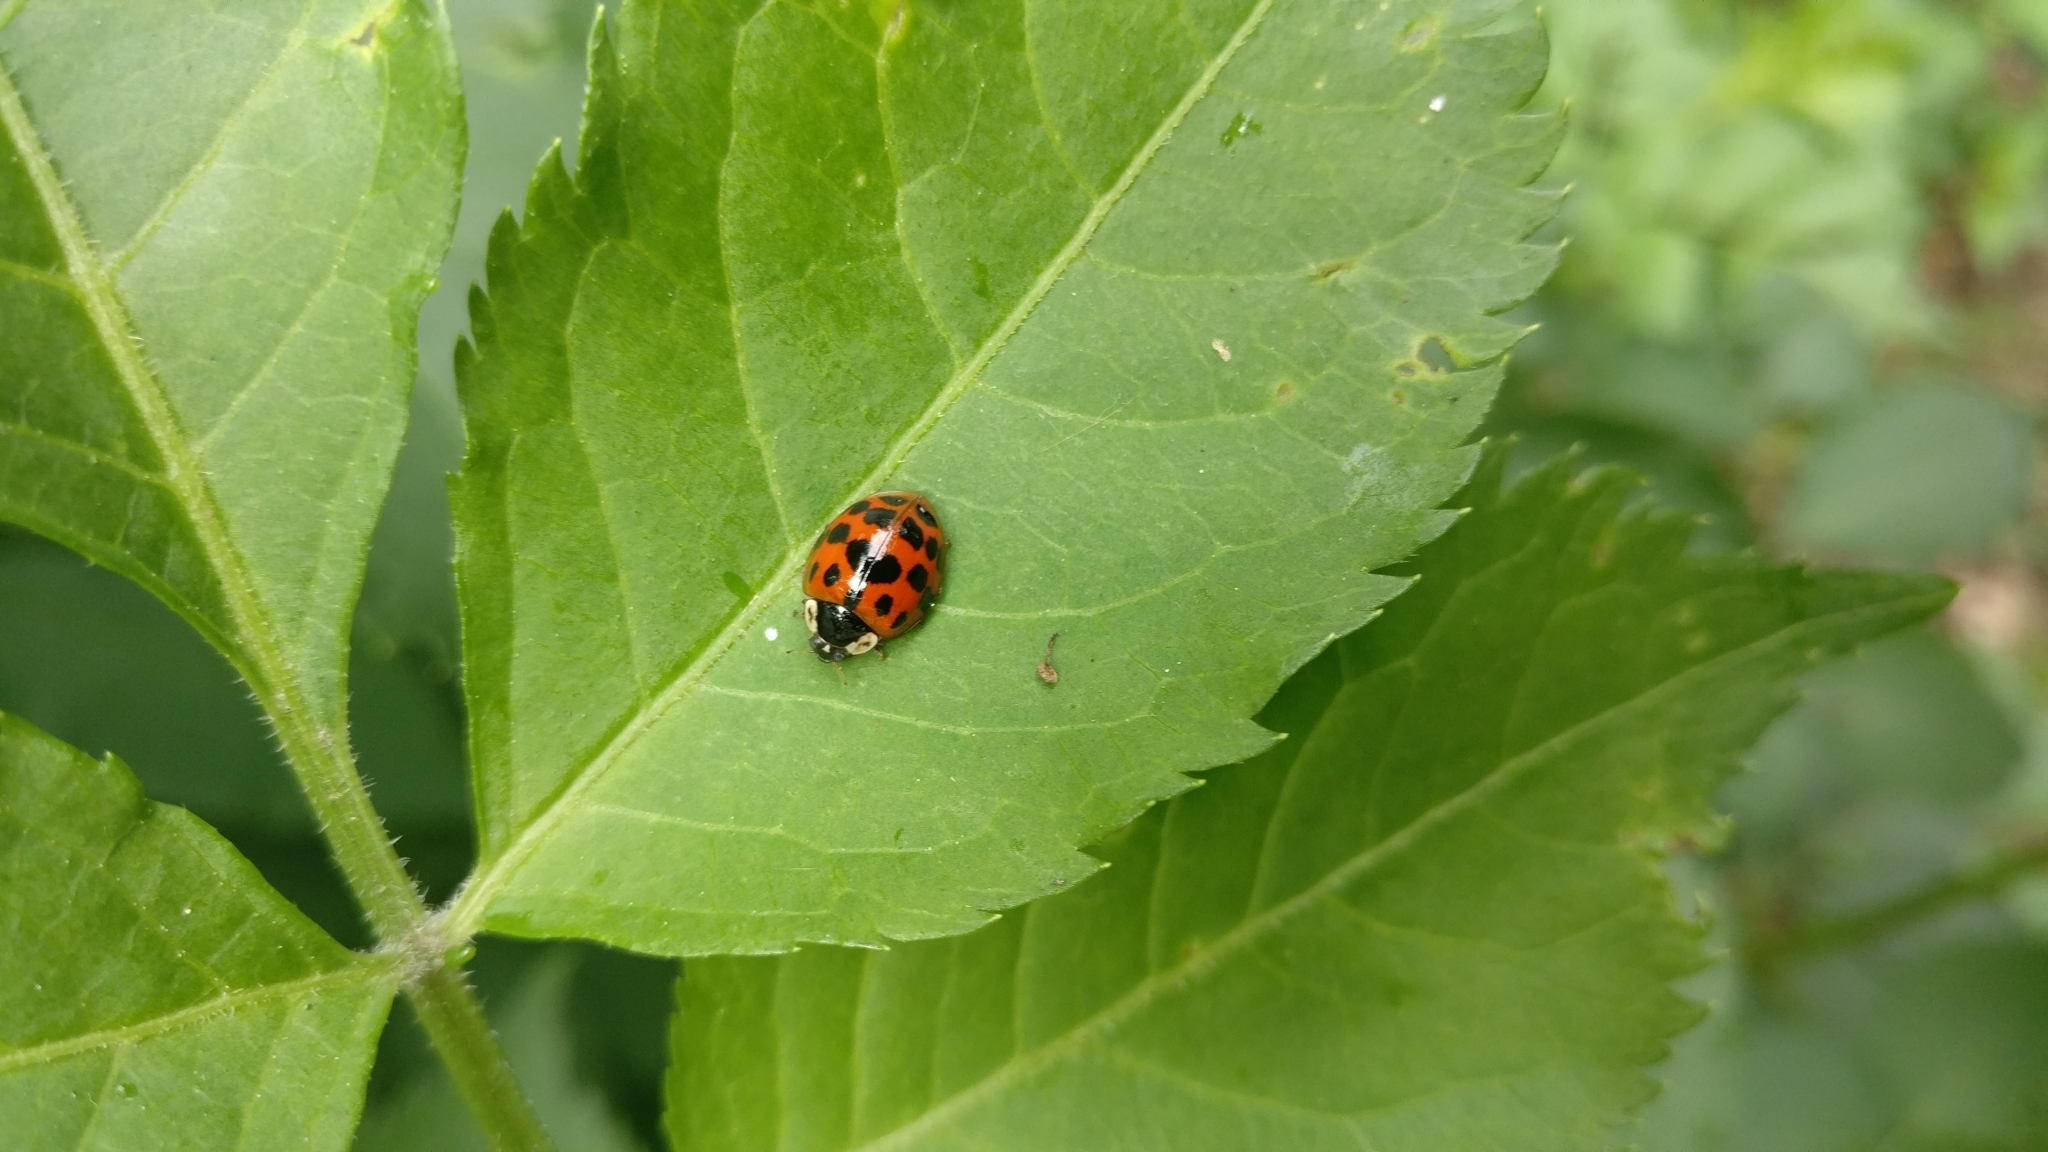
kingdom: Animalia
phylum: Arthropoda
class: Insecta
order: Coleoptera
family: Coccinellidae
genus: Harmonia
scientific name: Harmonia axyridis
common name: Harlequin ladybird
